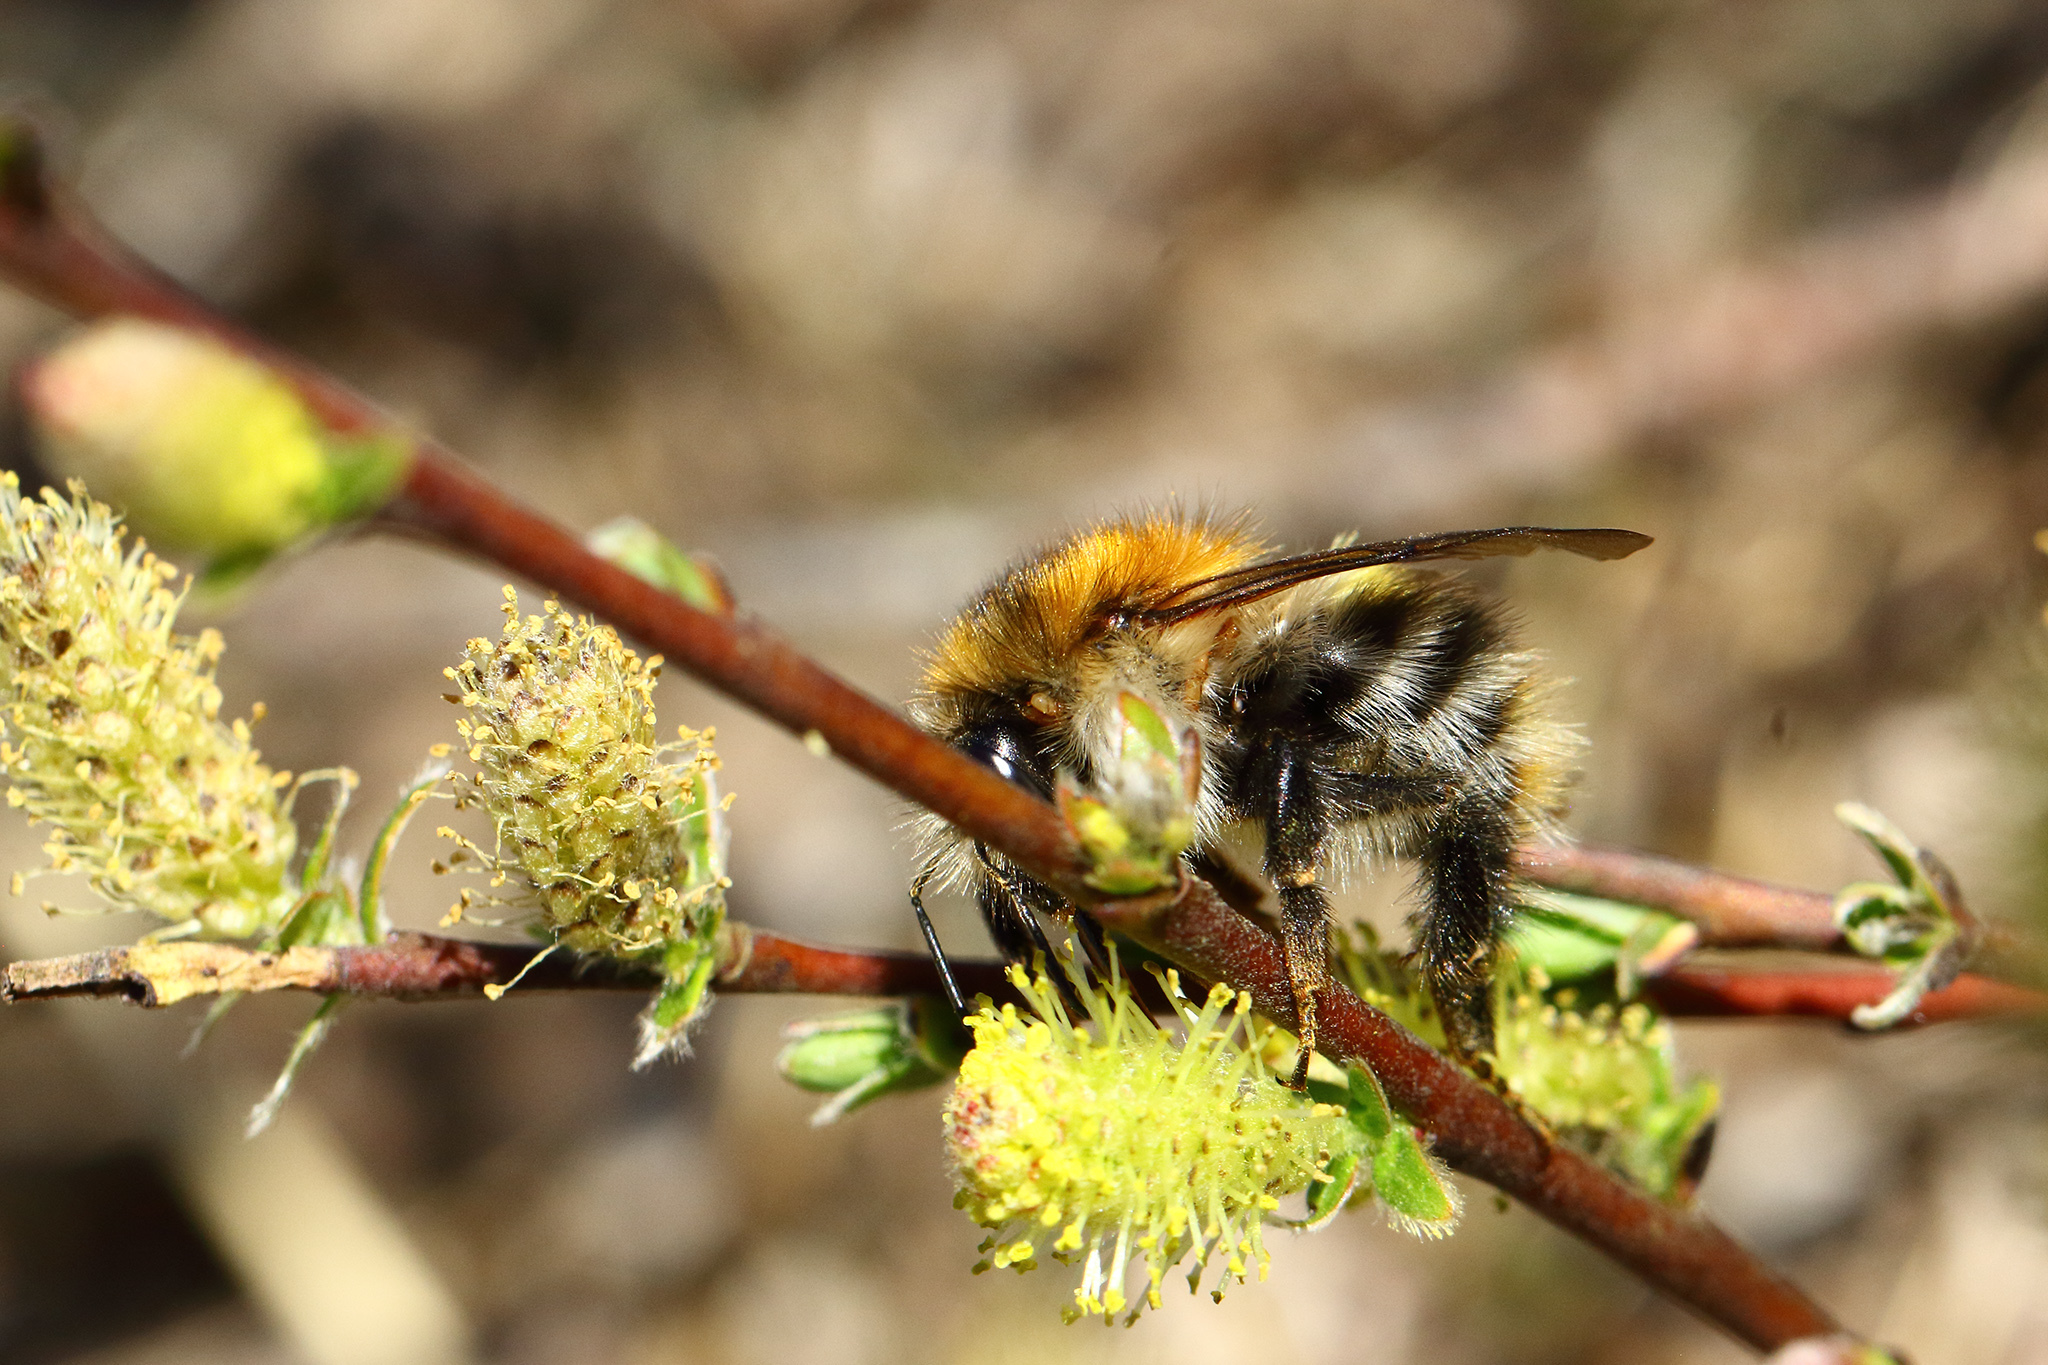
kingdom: Animalia
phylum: Arthropoda
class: Insecta
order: Hymenoptera
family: Apidae
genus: Bombus
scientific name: Bombus pascuorum
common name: Common carder bee
